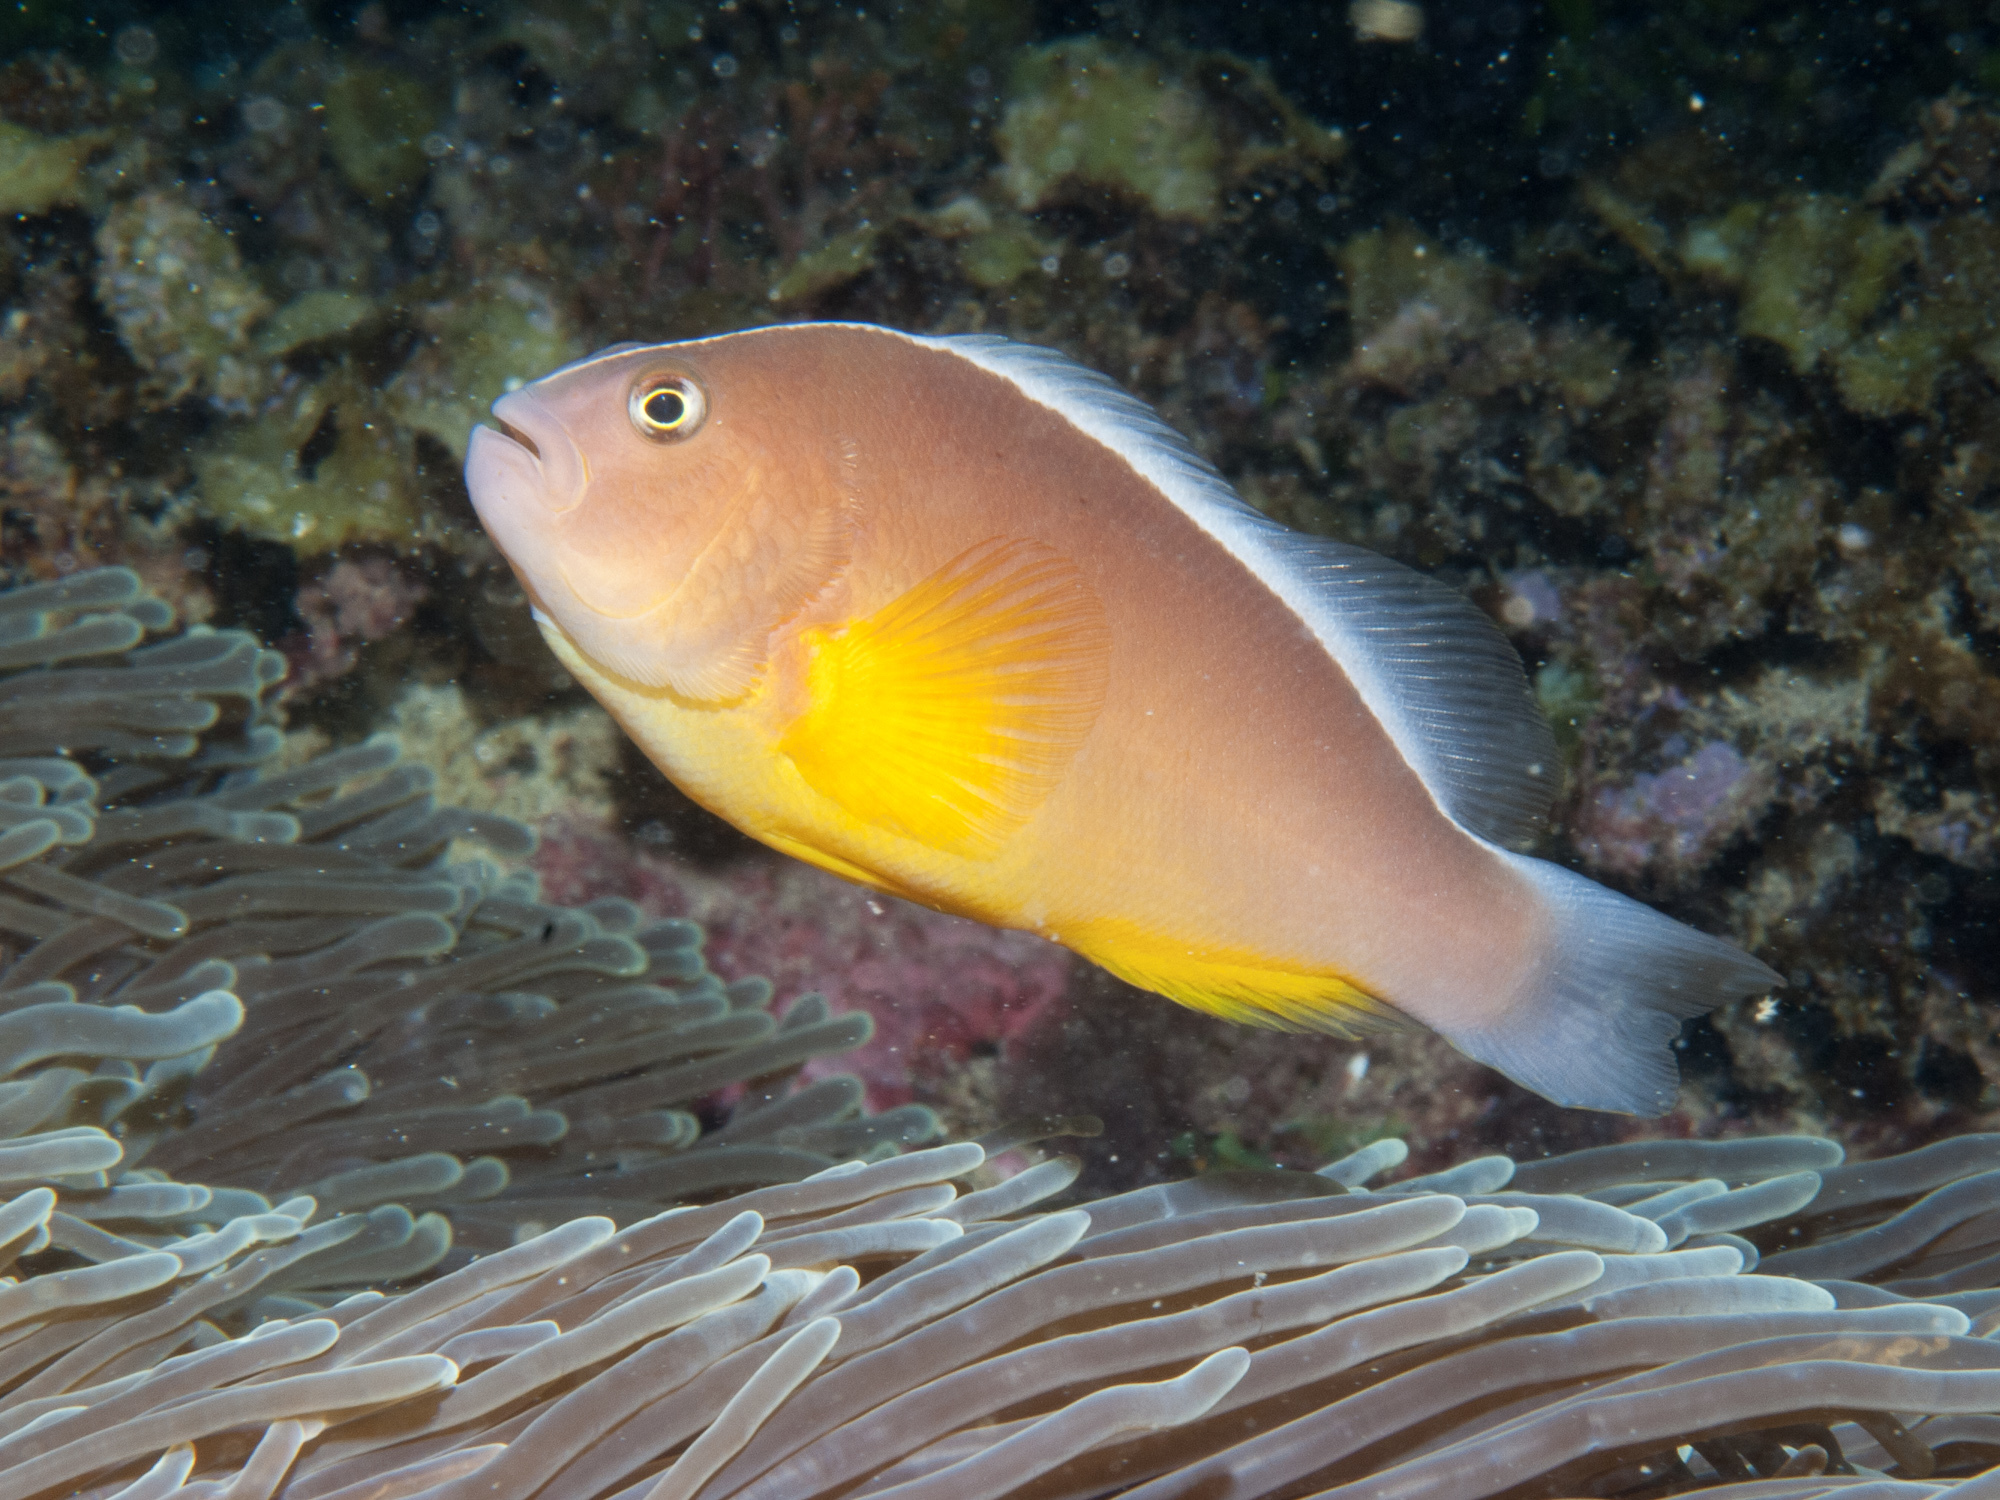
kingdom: Animalia
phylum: Chordata
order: Perciformes
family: Pomacentridae
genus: Amphiprion
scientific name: Amphiprion akallopisos
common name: Skunk clownfish
